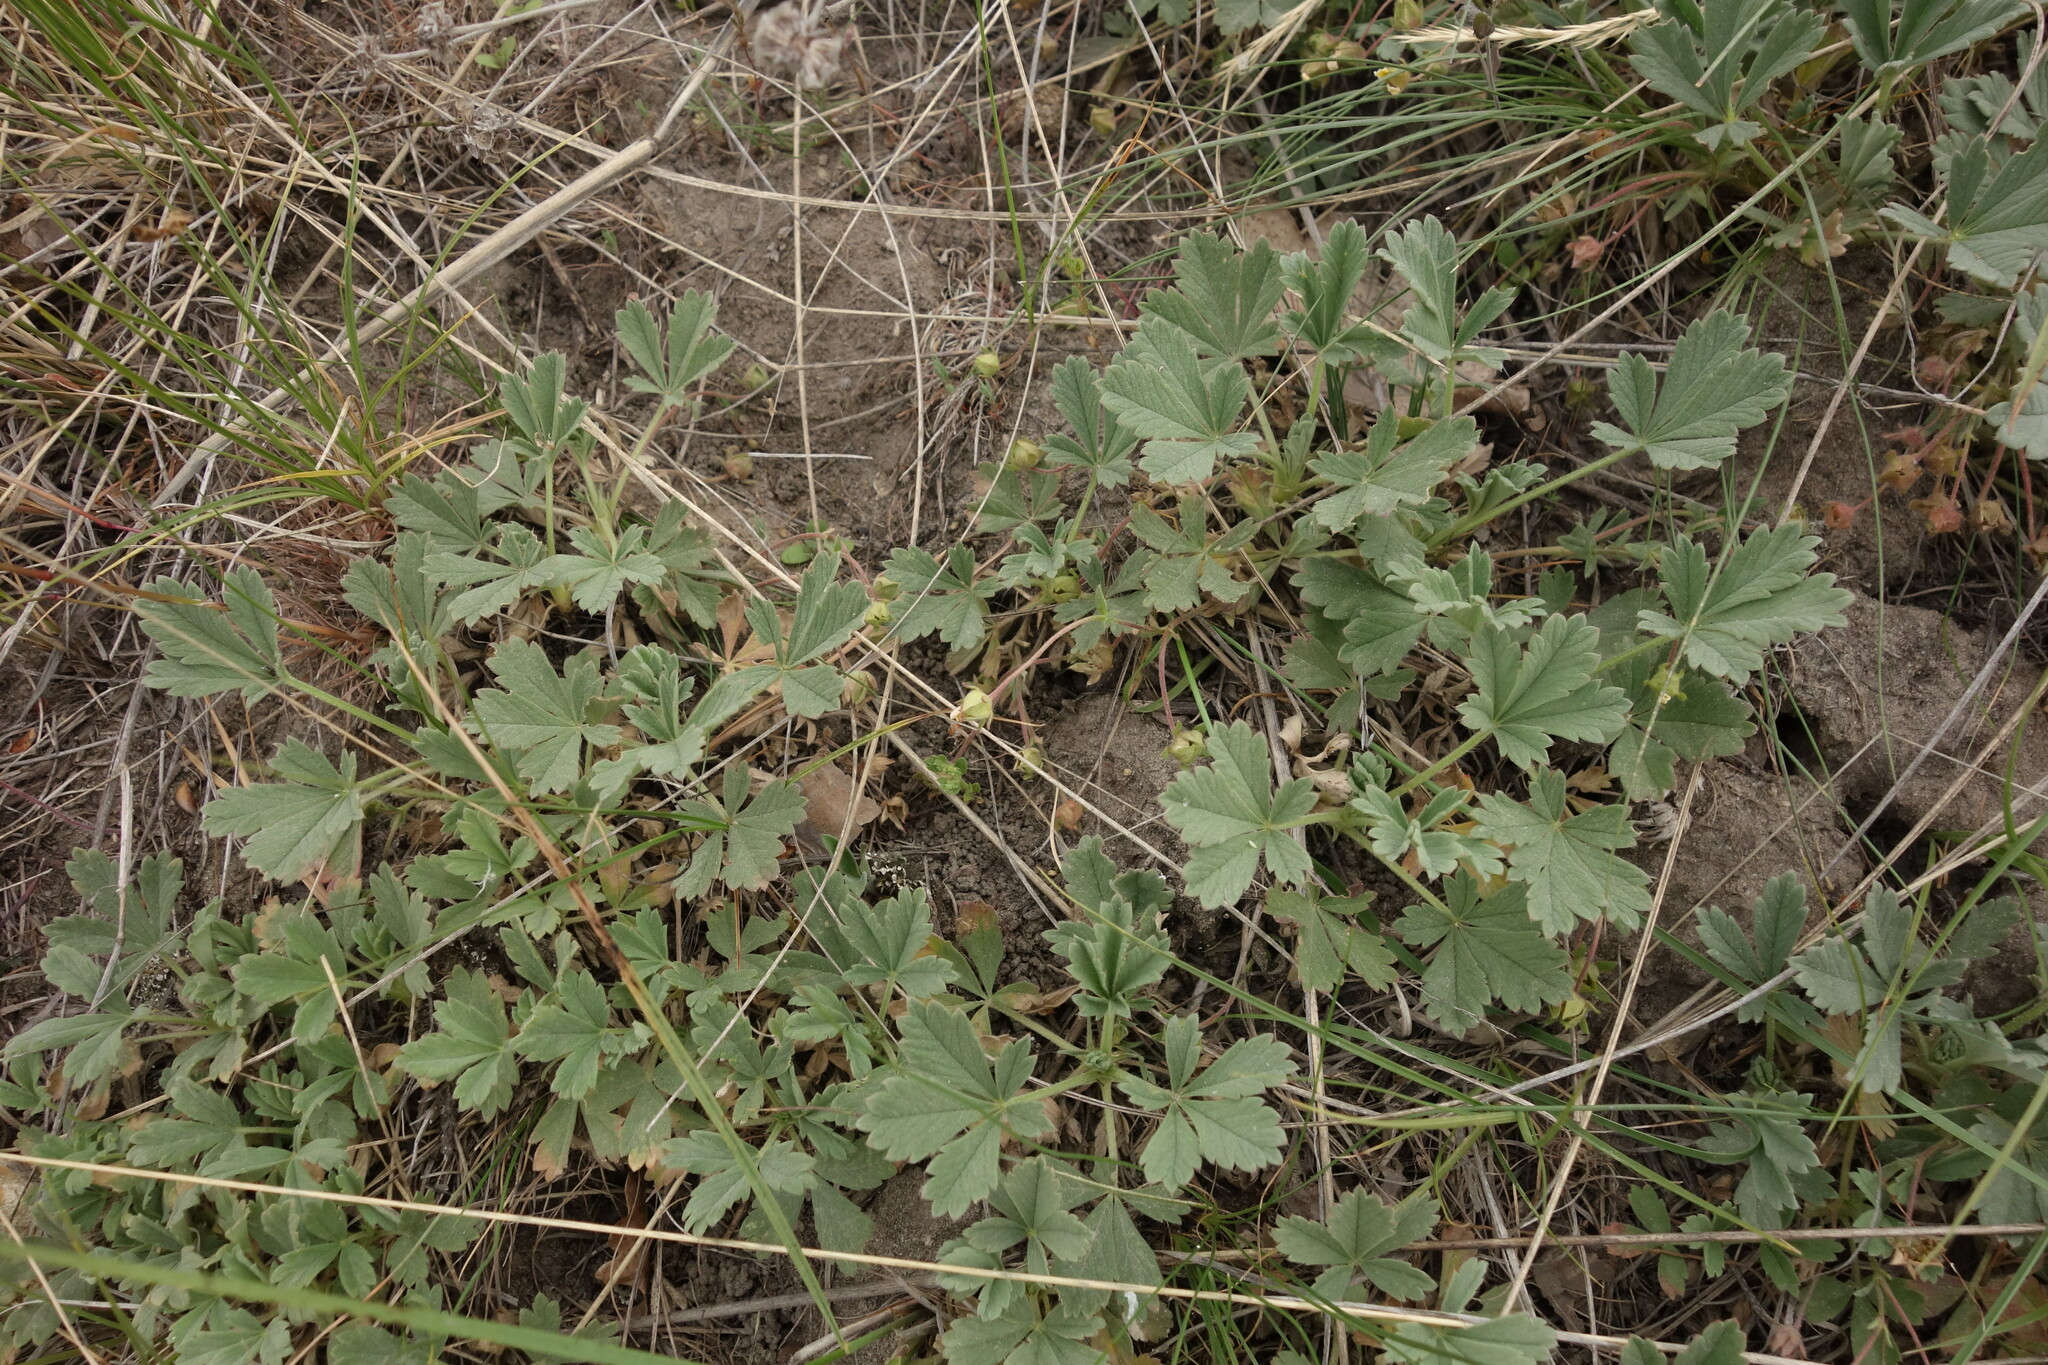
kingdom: Plantae
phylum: Tracheophyta
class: Magnoliopsida
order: Rosales
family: Rosaceae
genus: Potentilla
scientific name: Potentilla incana
